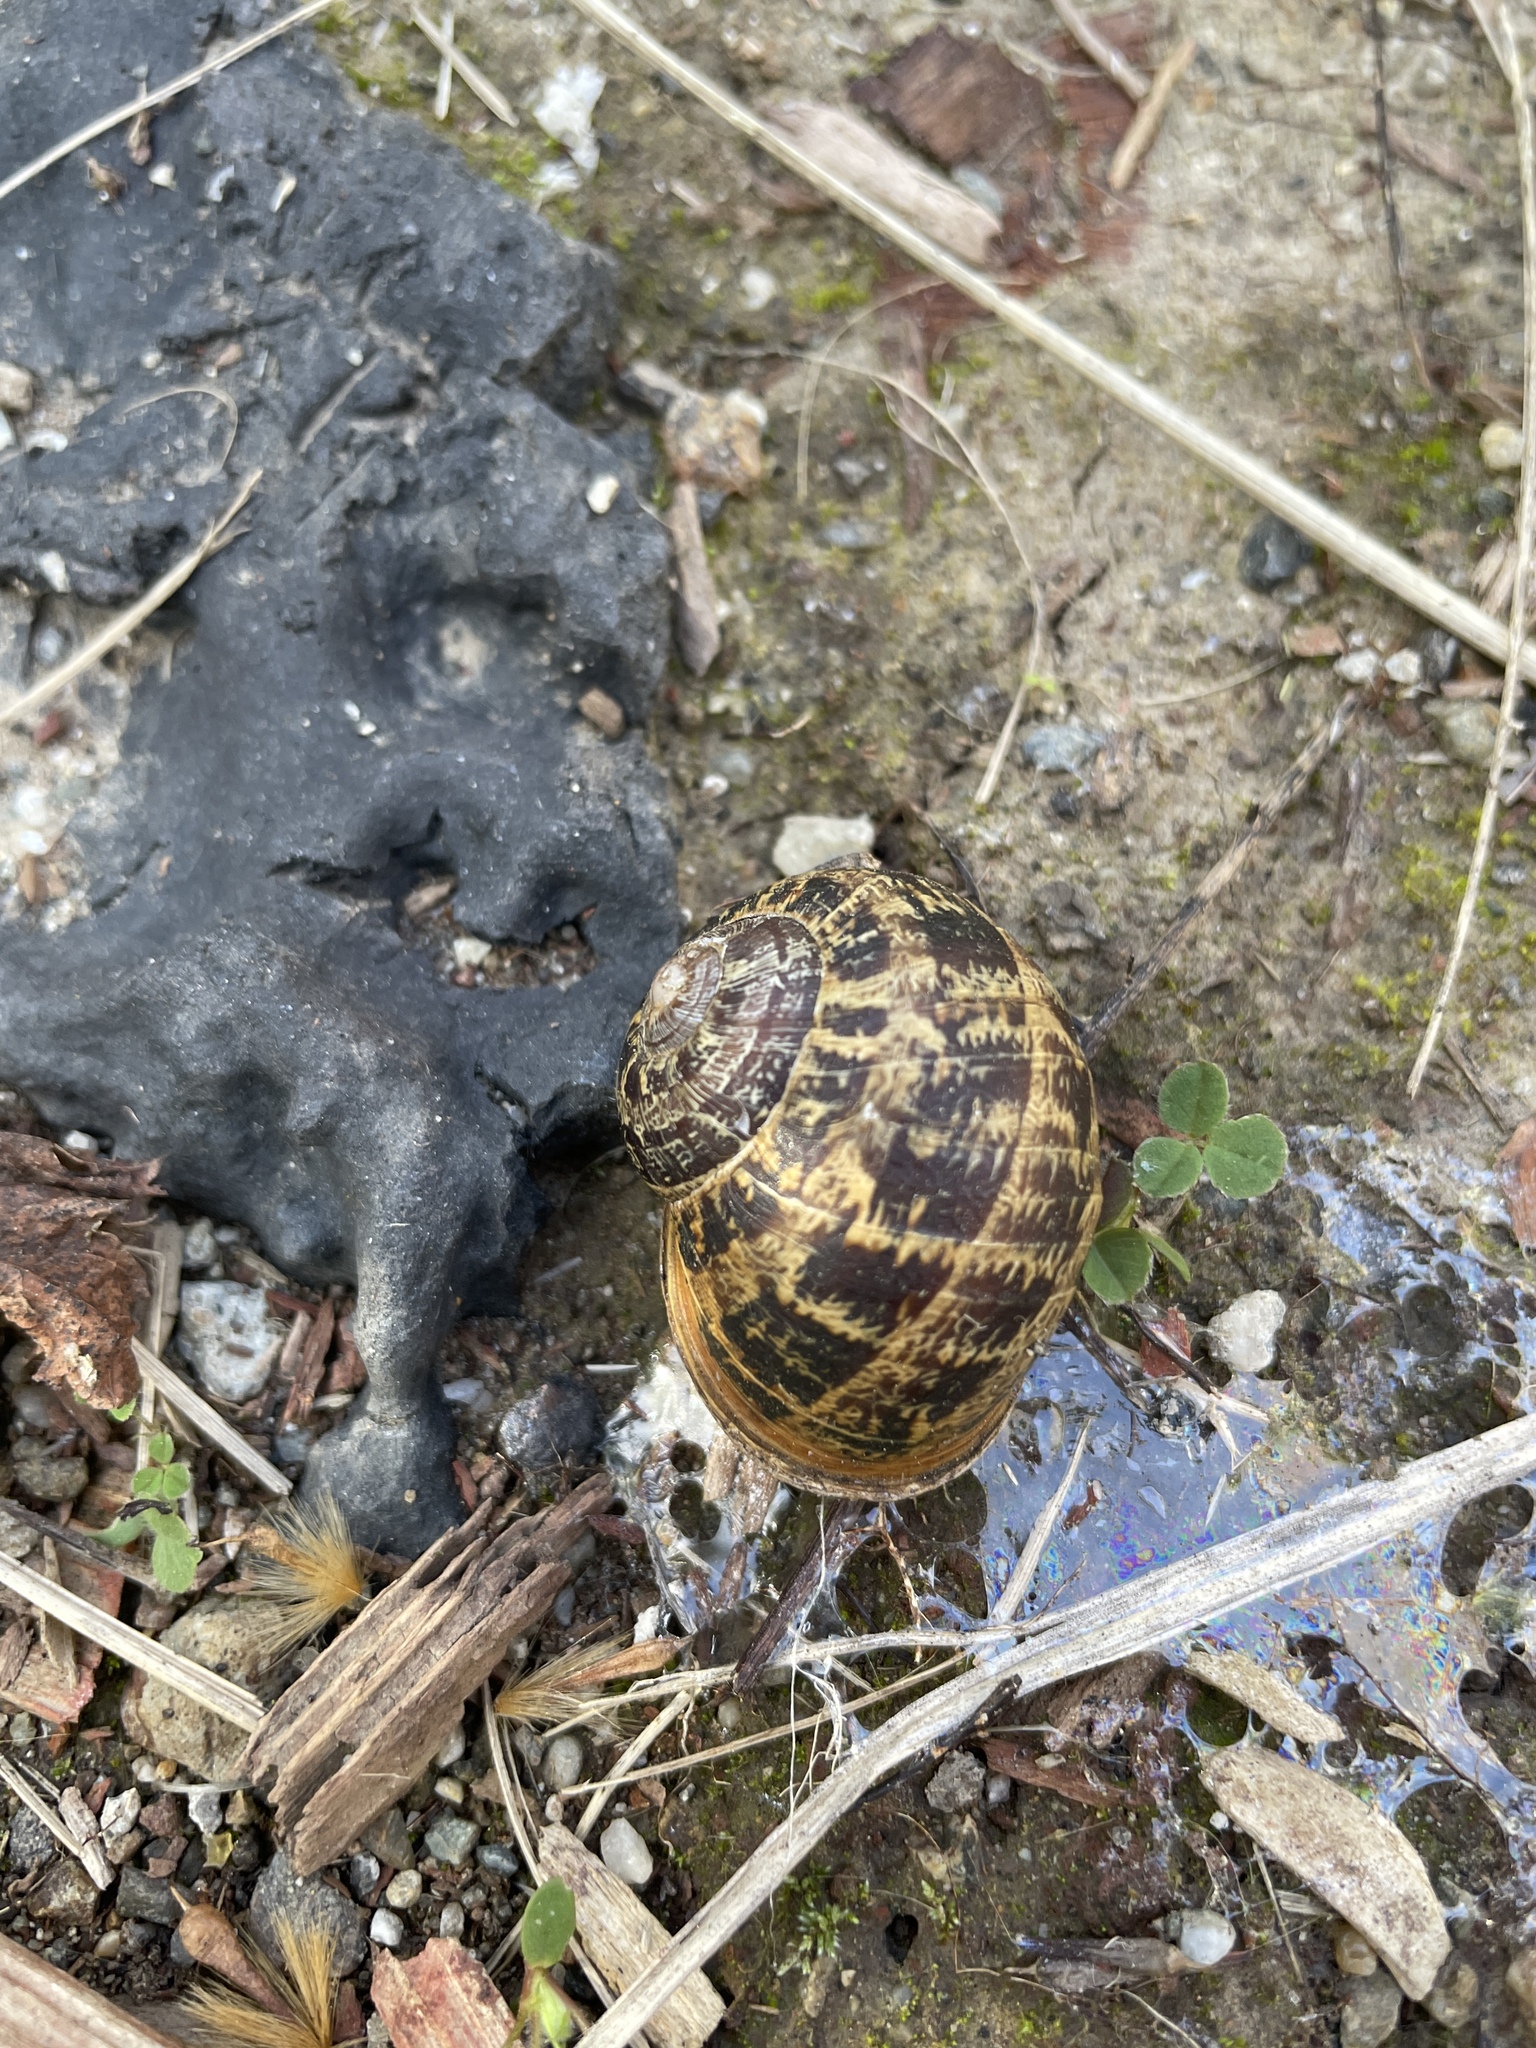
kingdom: Animalia
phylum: Mollusca
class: Gastropoda
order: Stylommatophora
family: Helicidae
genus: Cornu
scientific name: Cornu aspersum
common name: Brown garden snail
